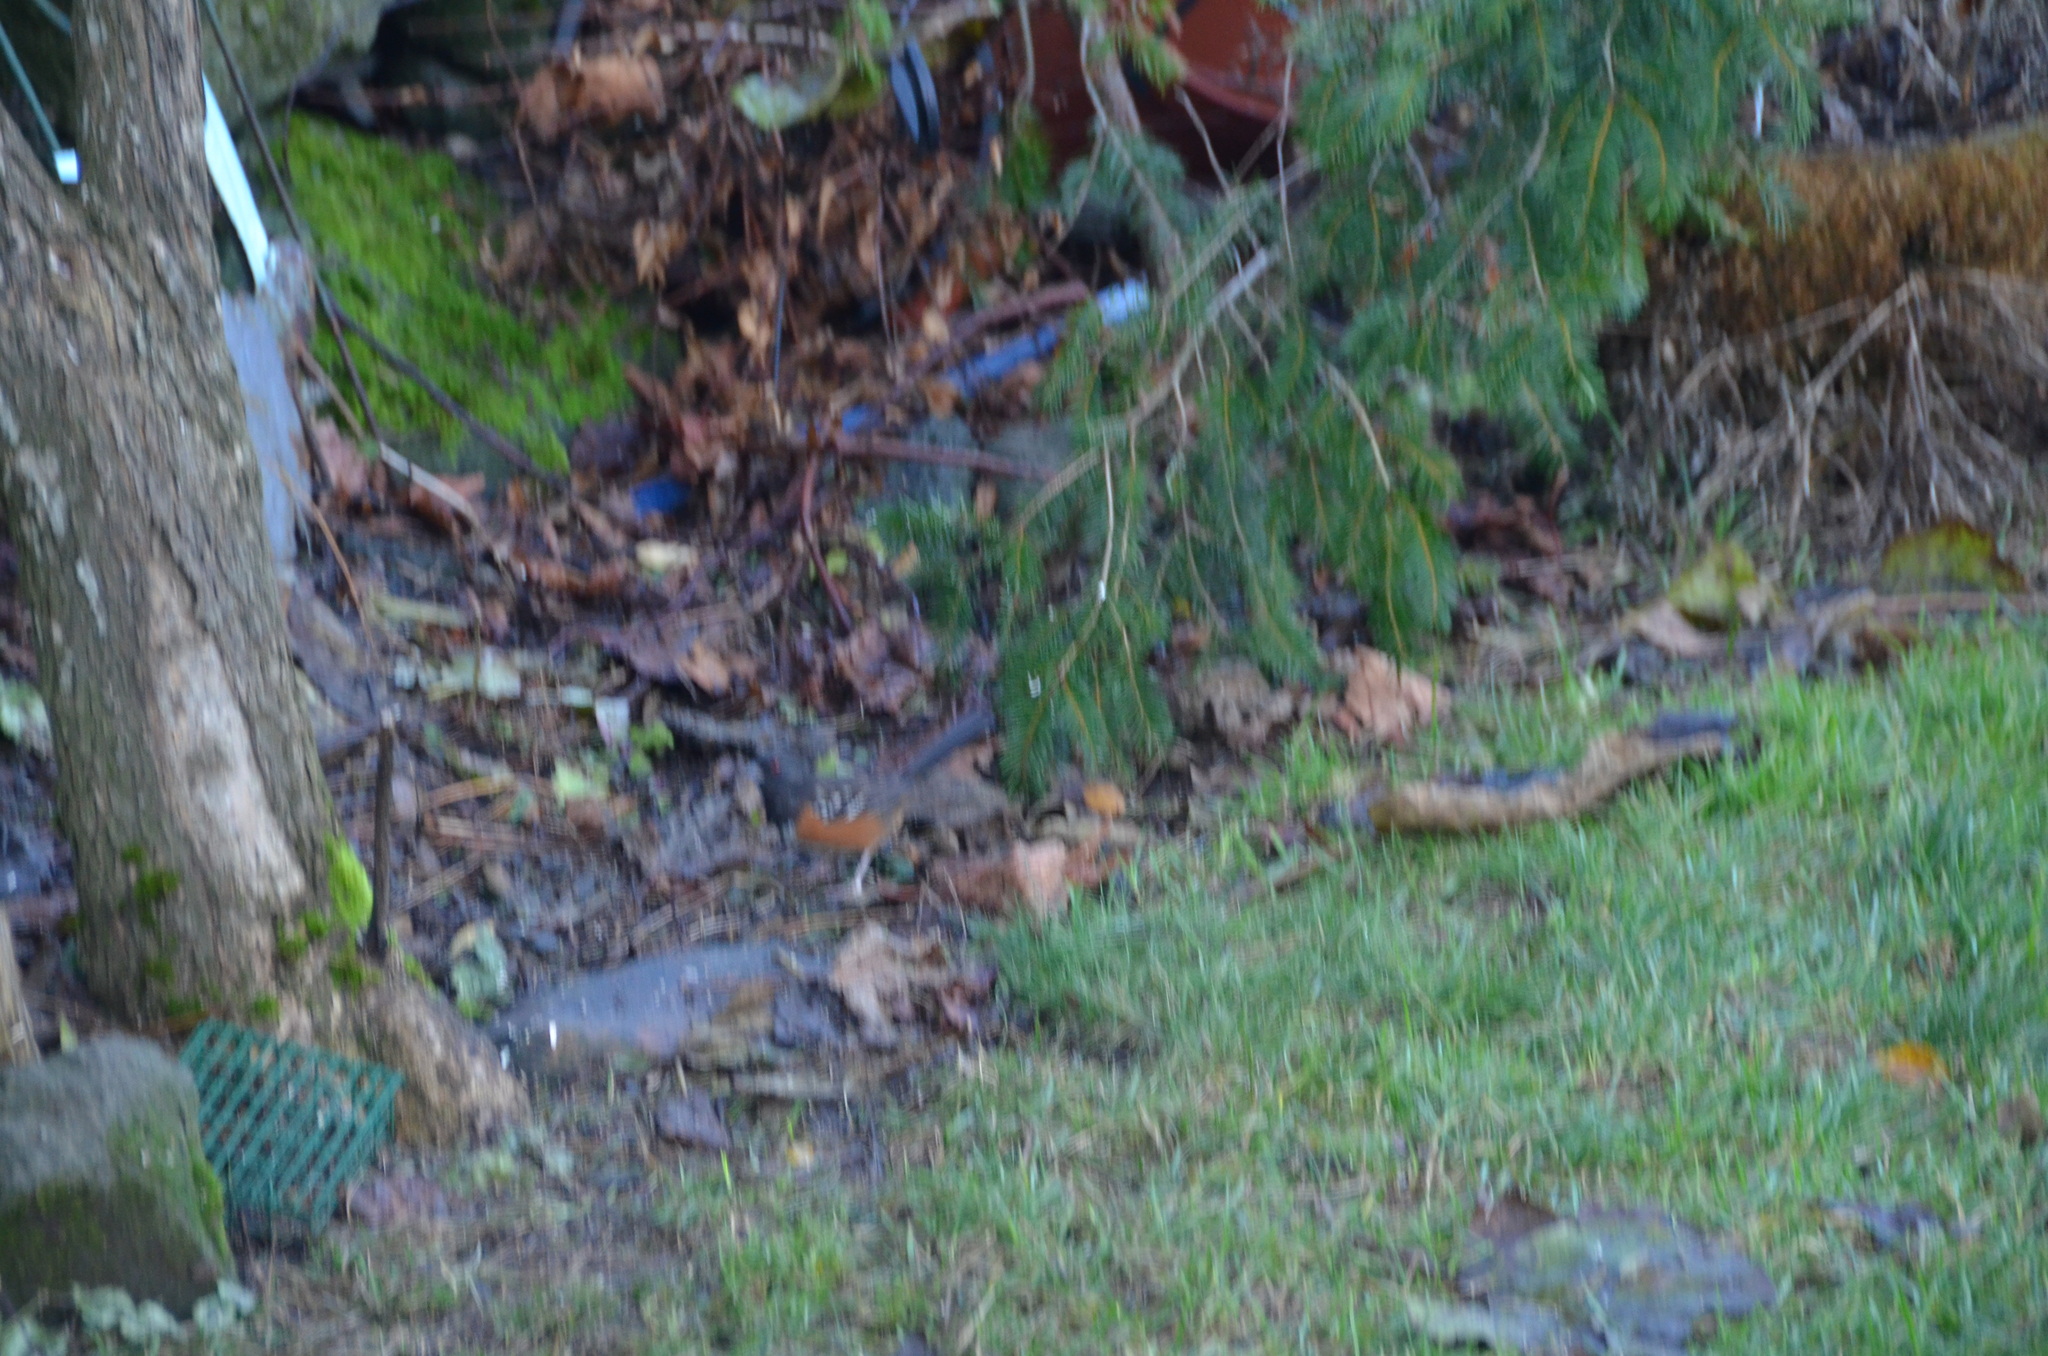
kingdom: Animalia
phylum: Chordata
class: Aves
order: Passeriformes
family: Passerellidae
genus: Pipilo
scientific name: Pipilo maculatus
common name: Spotted towhee
